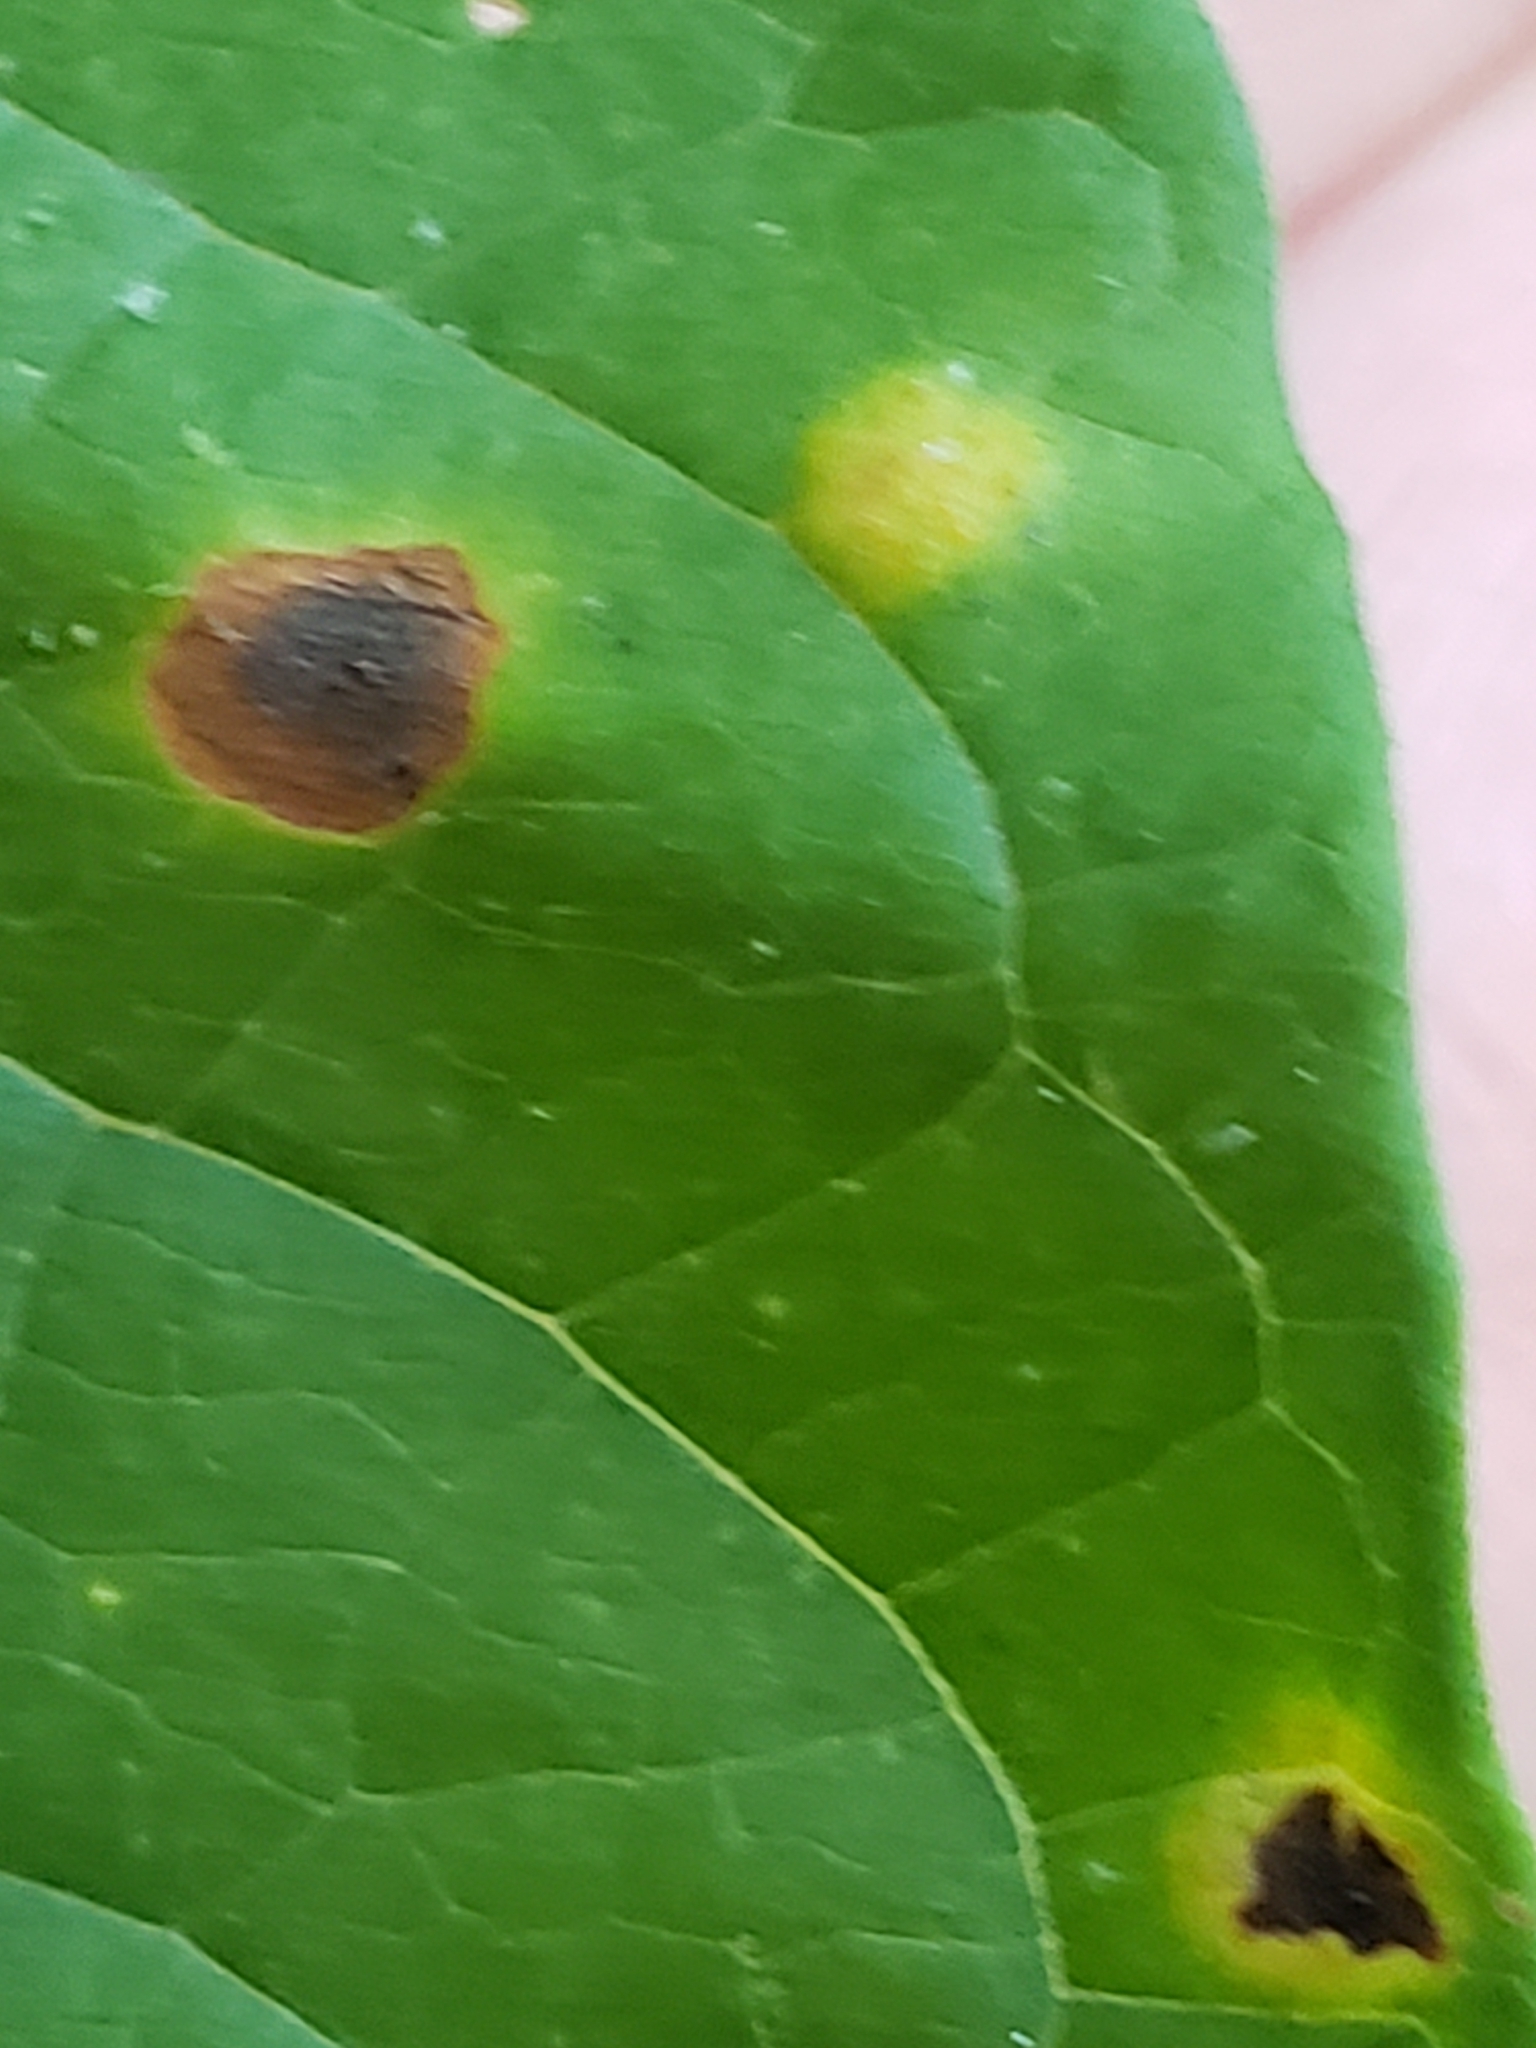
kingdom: Fungi
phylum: Basidiomycota
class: Pucciniomycetes
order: Pucciniales
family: Pucciniaceae
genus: Puccinia
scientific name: Puccinia convolvuli
